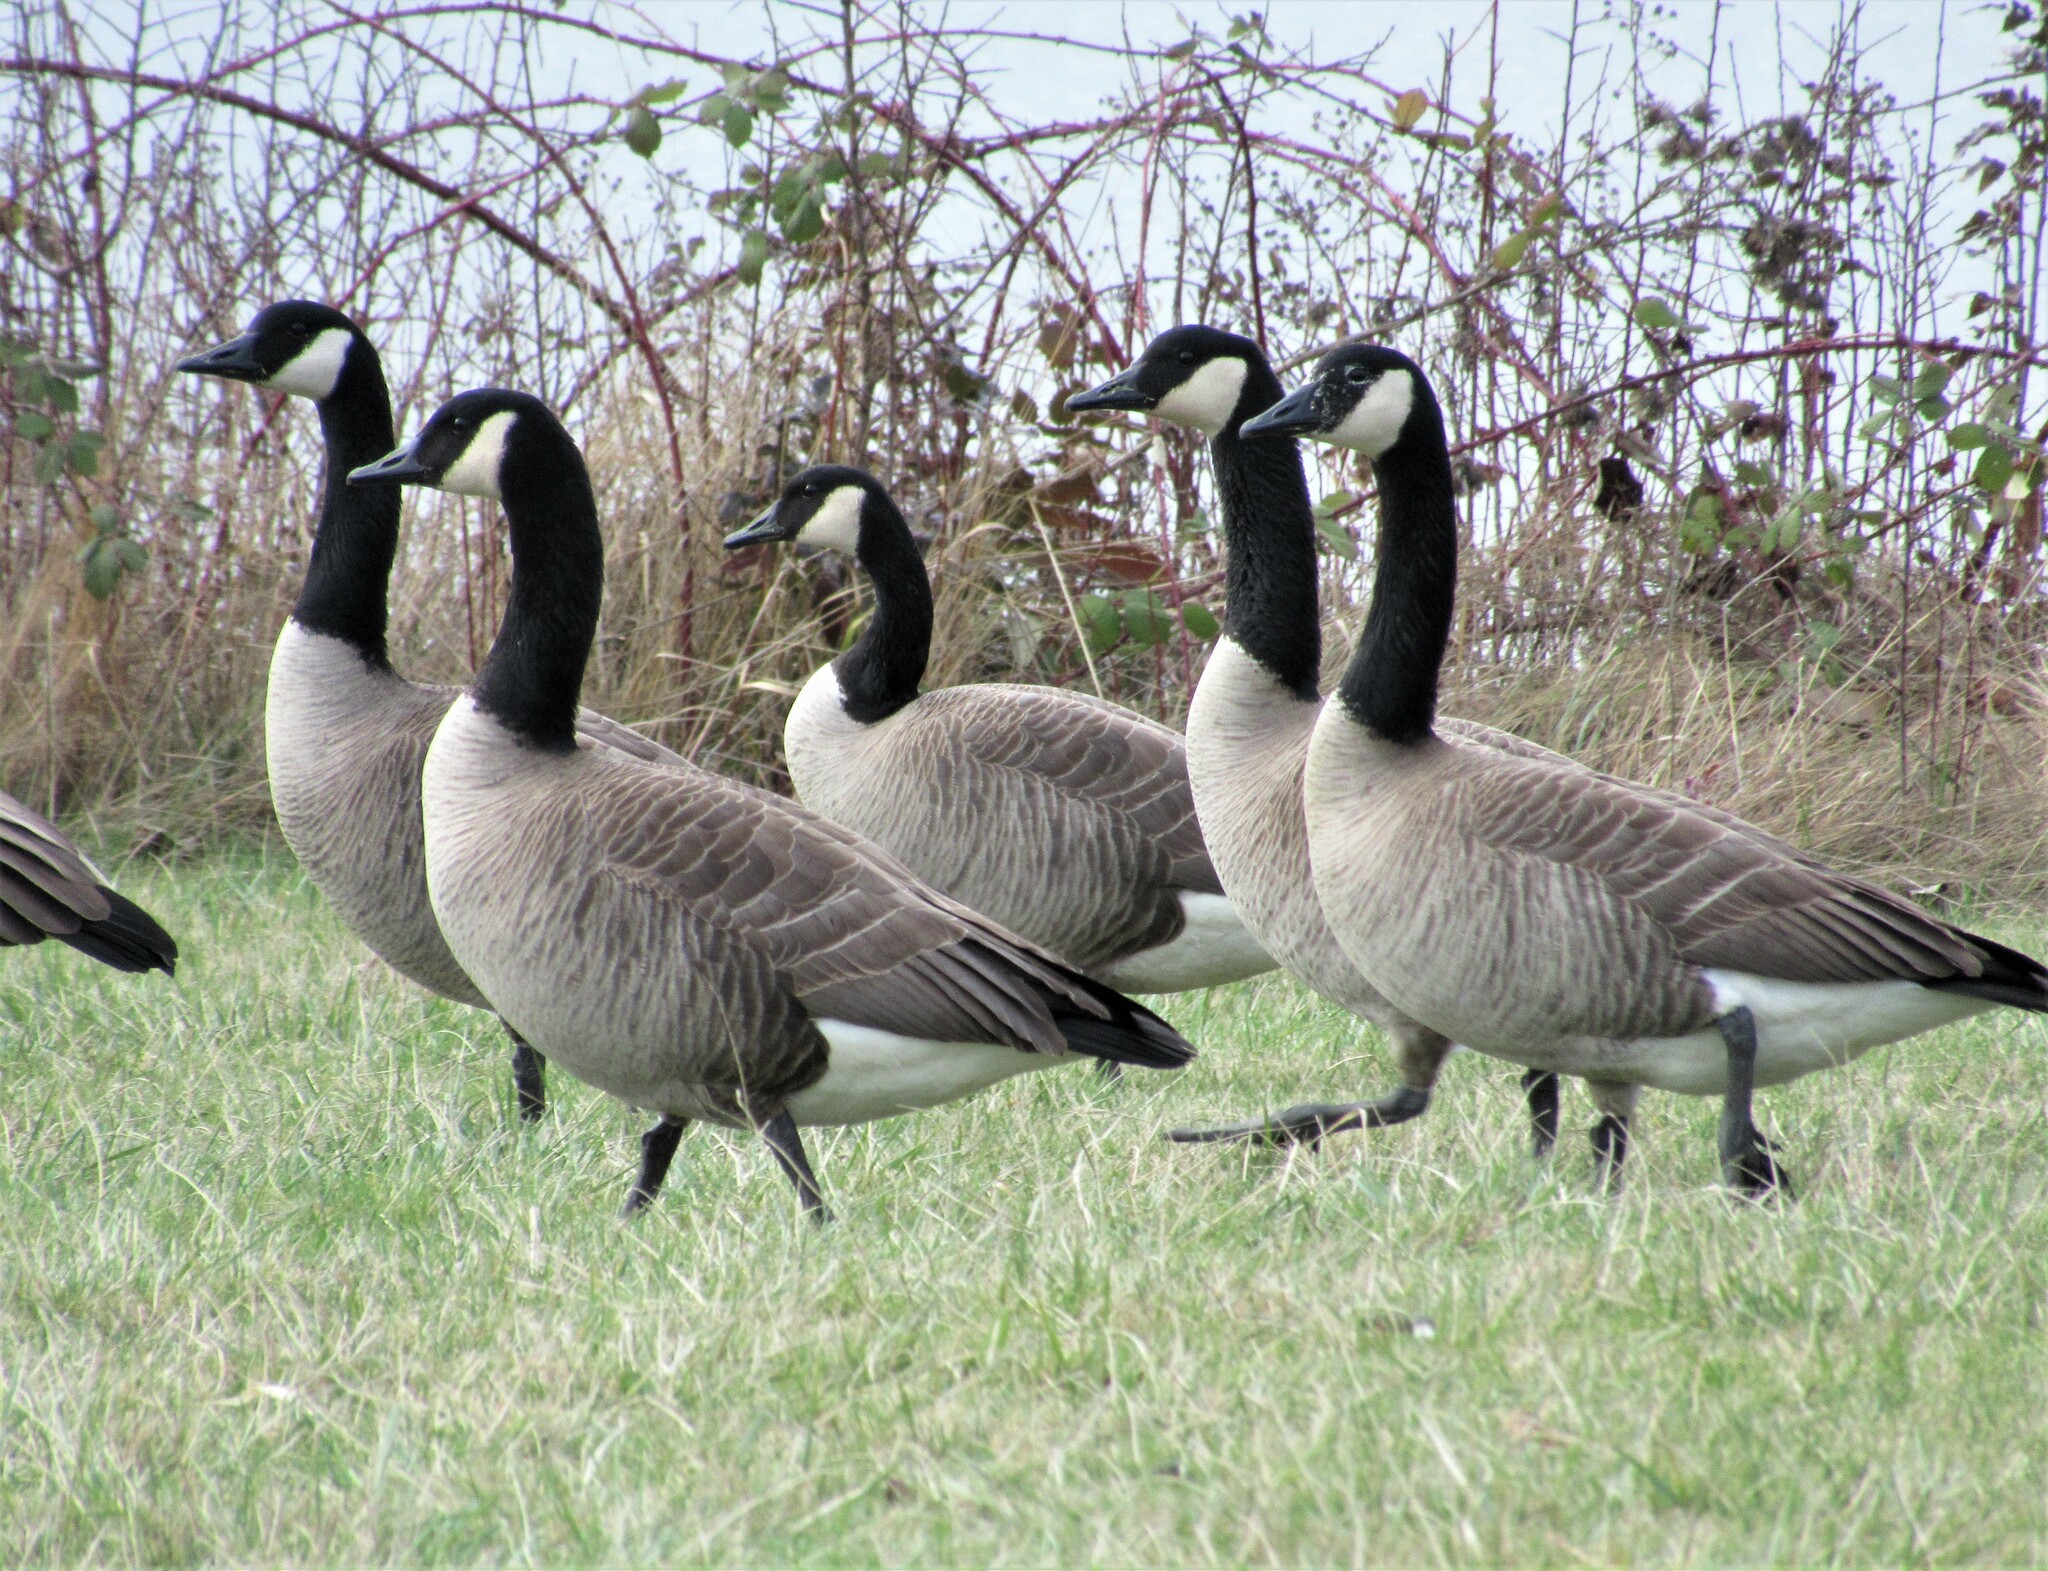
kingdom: Animalia
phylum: Chordata
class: Aves
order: Anseriformes
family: Anatidae
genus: Branta
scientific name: Branta canadensis
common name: Canada goose
